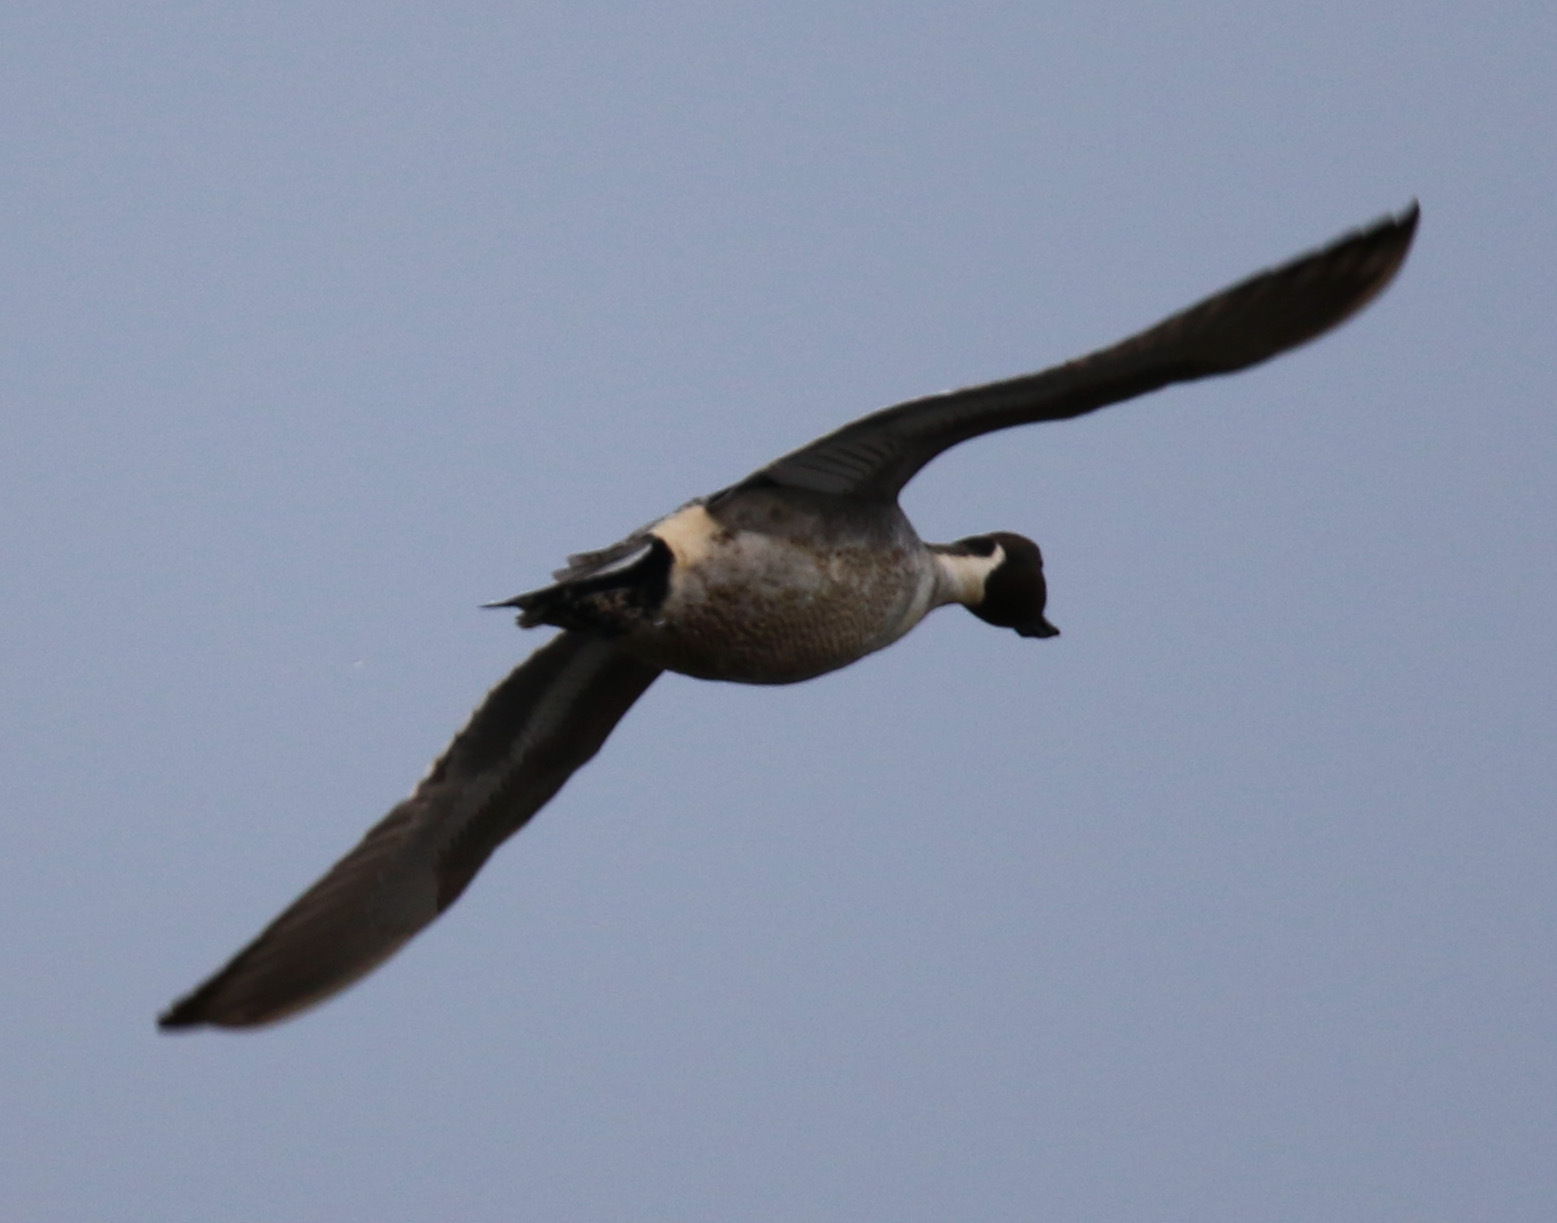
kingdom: Animalia
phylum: Chordata
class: Aves
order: Anseriformes
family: Anatidae
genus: Anas
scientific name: Anas acuta
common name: Northern pintail
